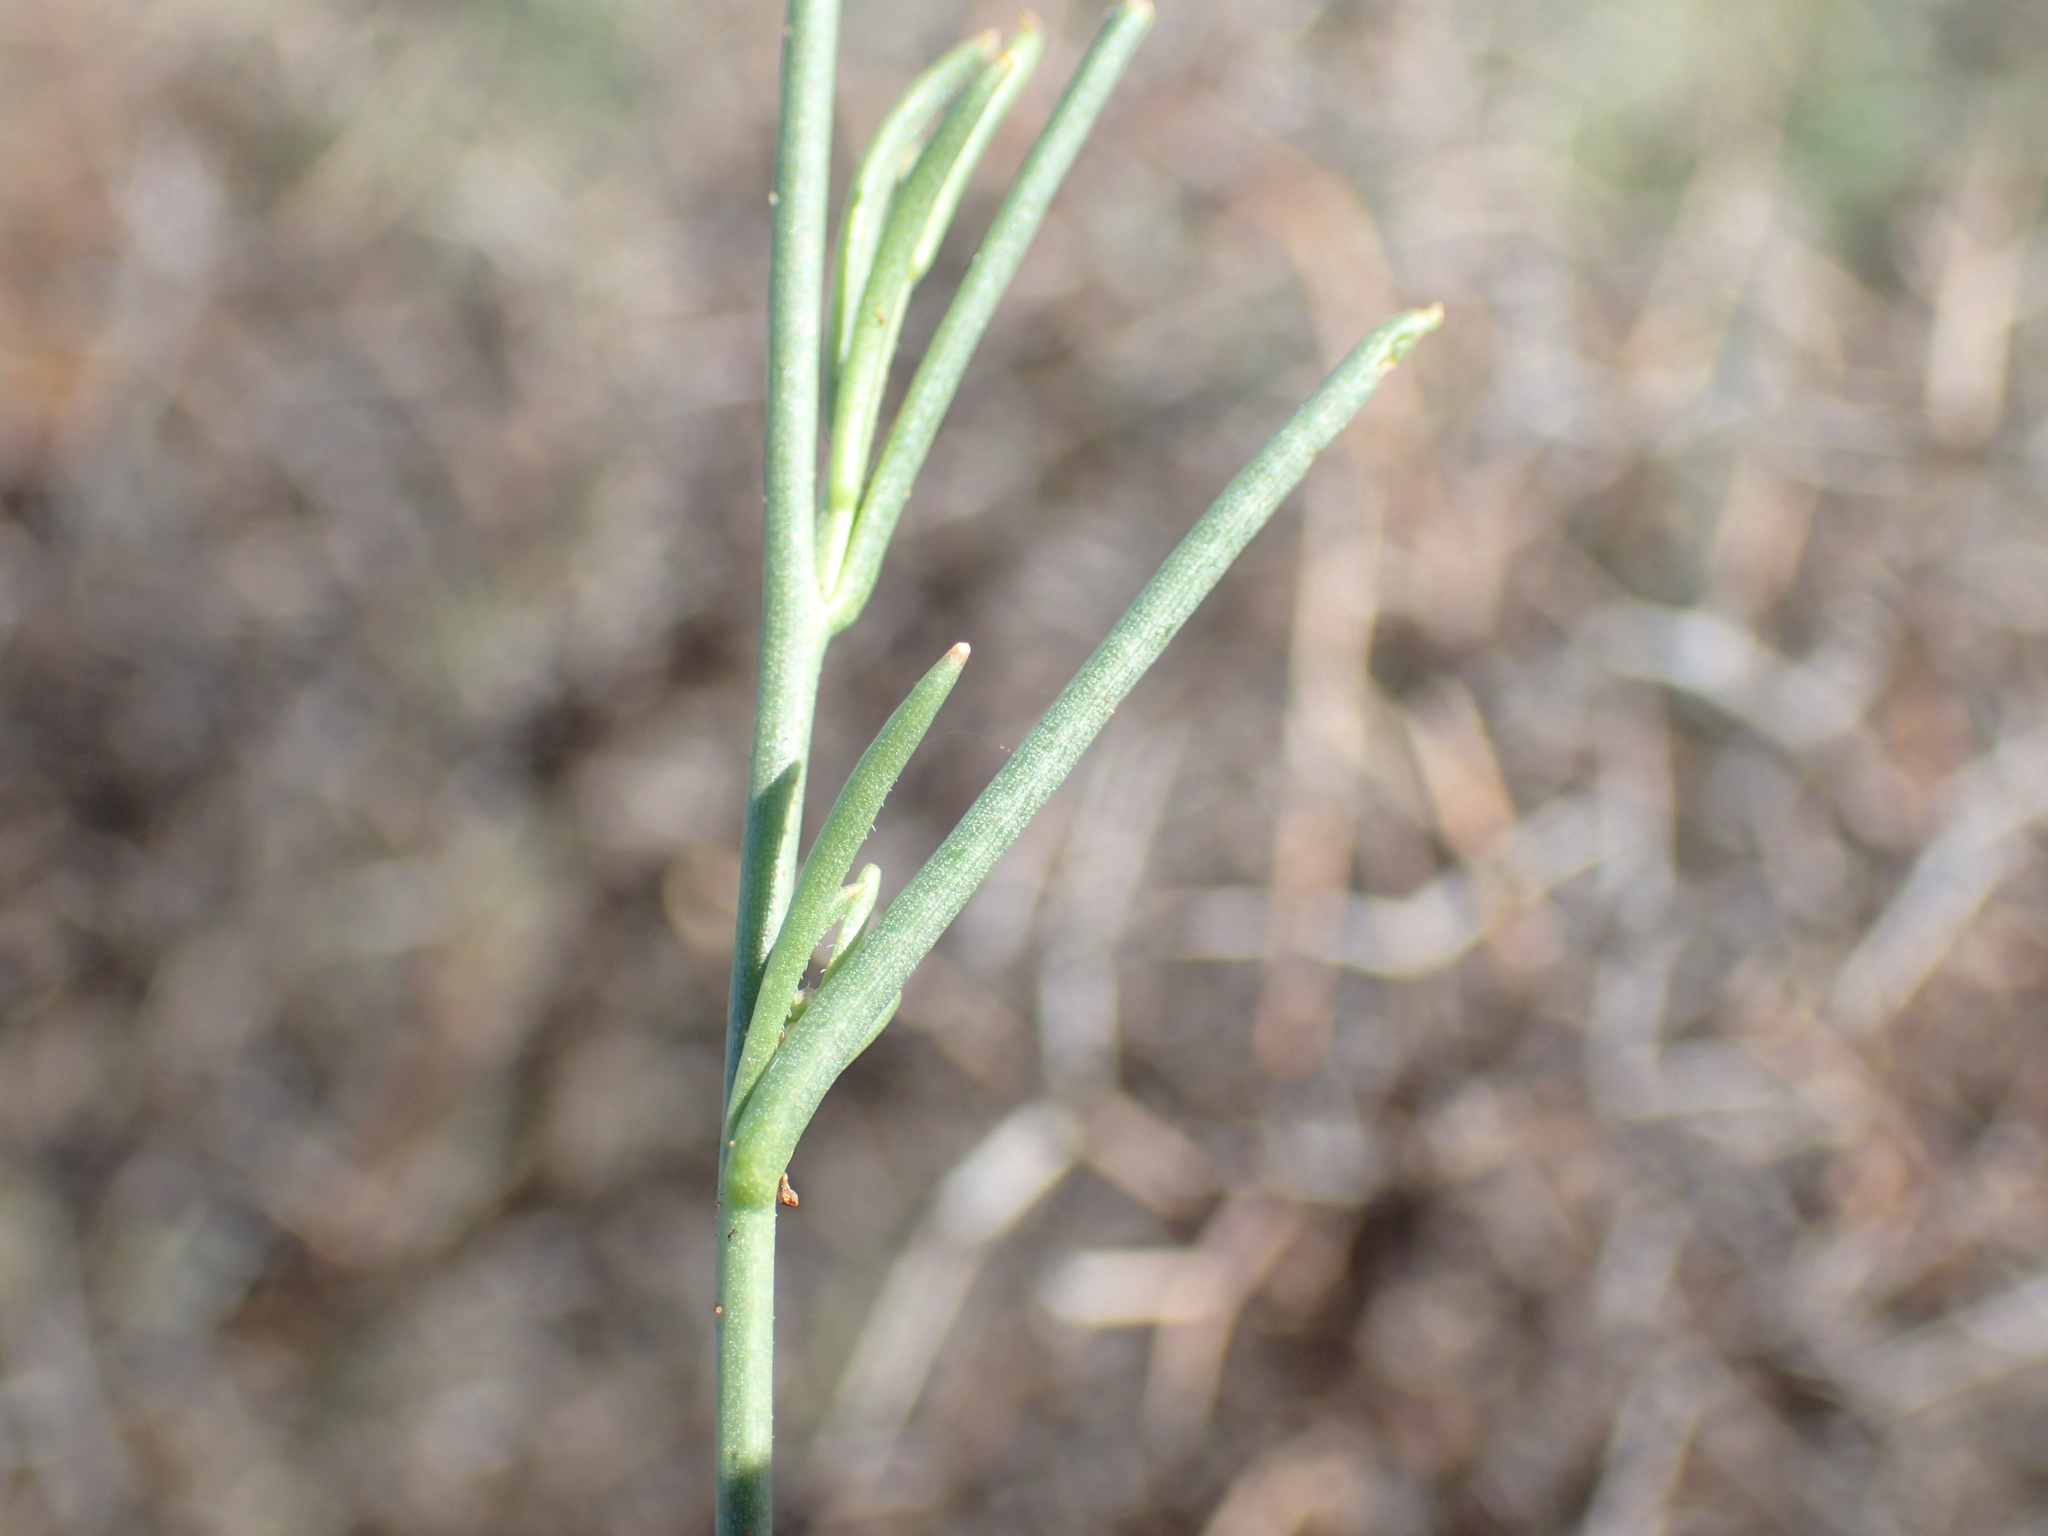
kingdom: Plantae
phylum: Tracheophyta
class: Magnoliopsida
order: Brassicales
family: Brassicaceae
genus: Heliophila
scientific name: Heliophila minima
